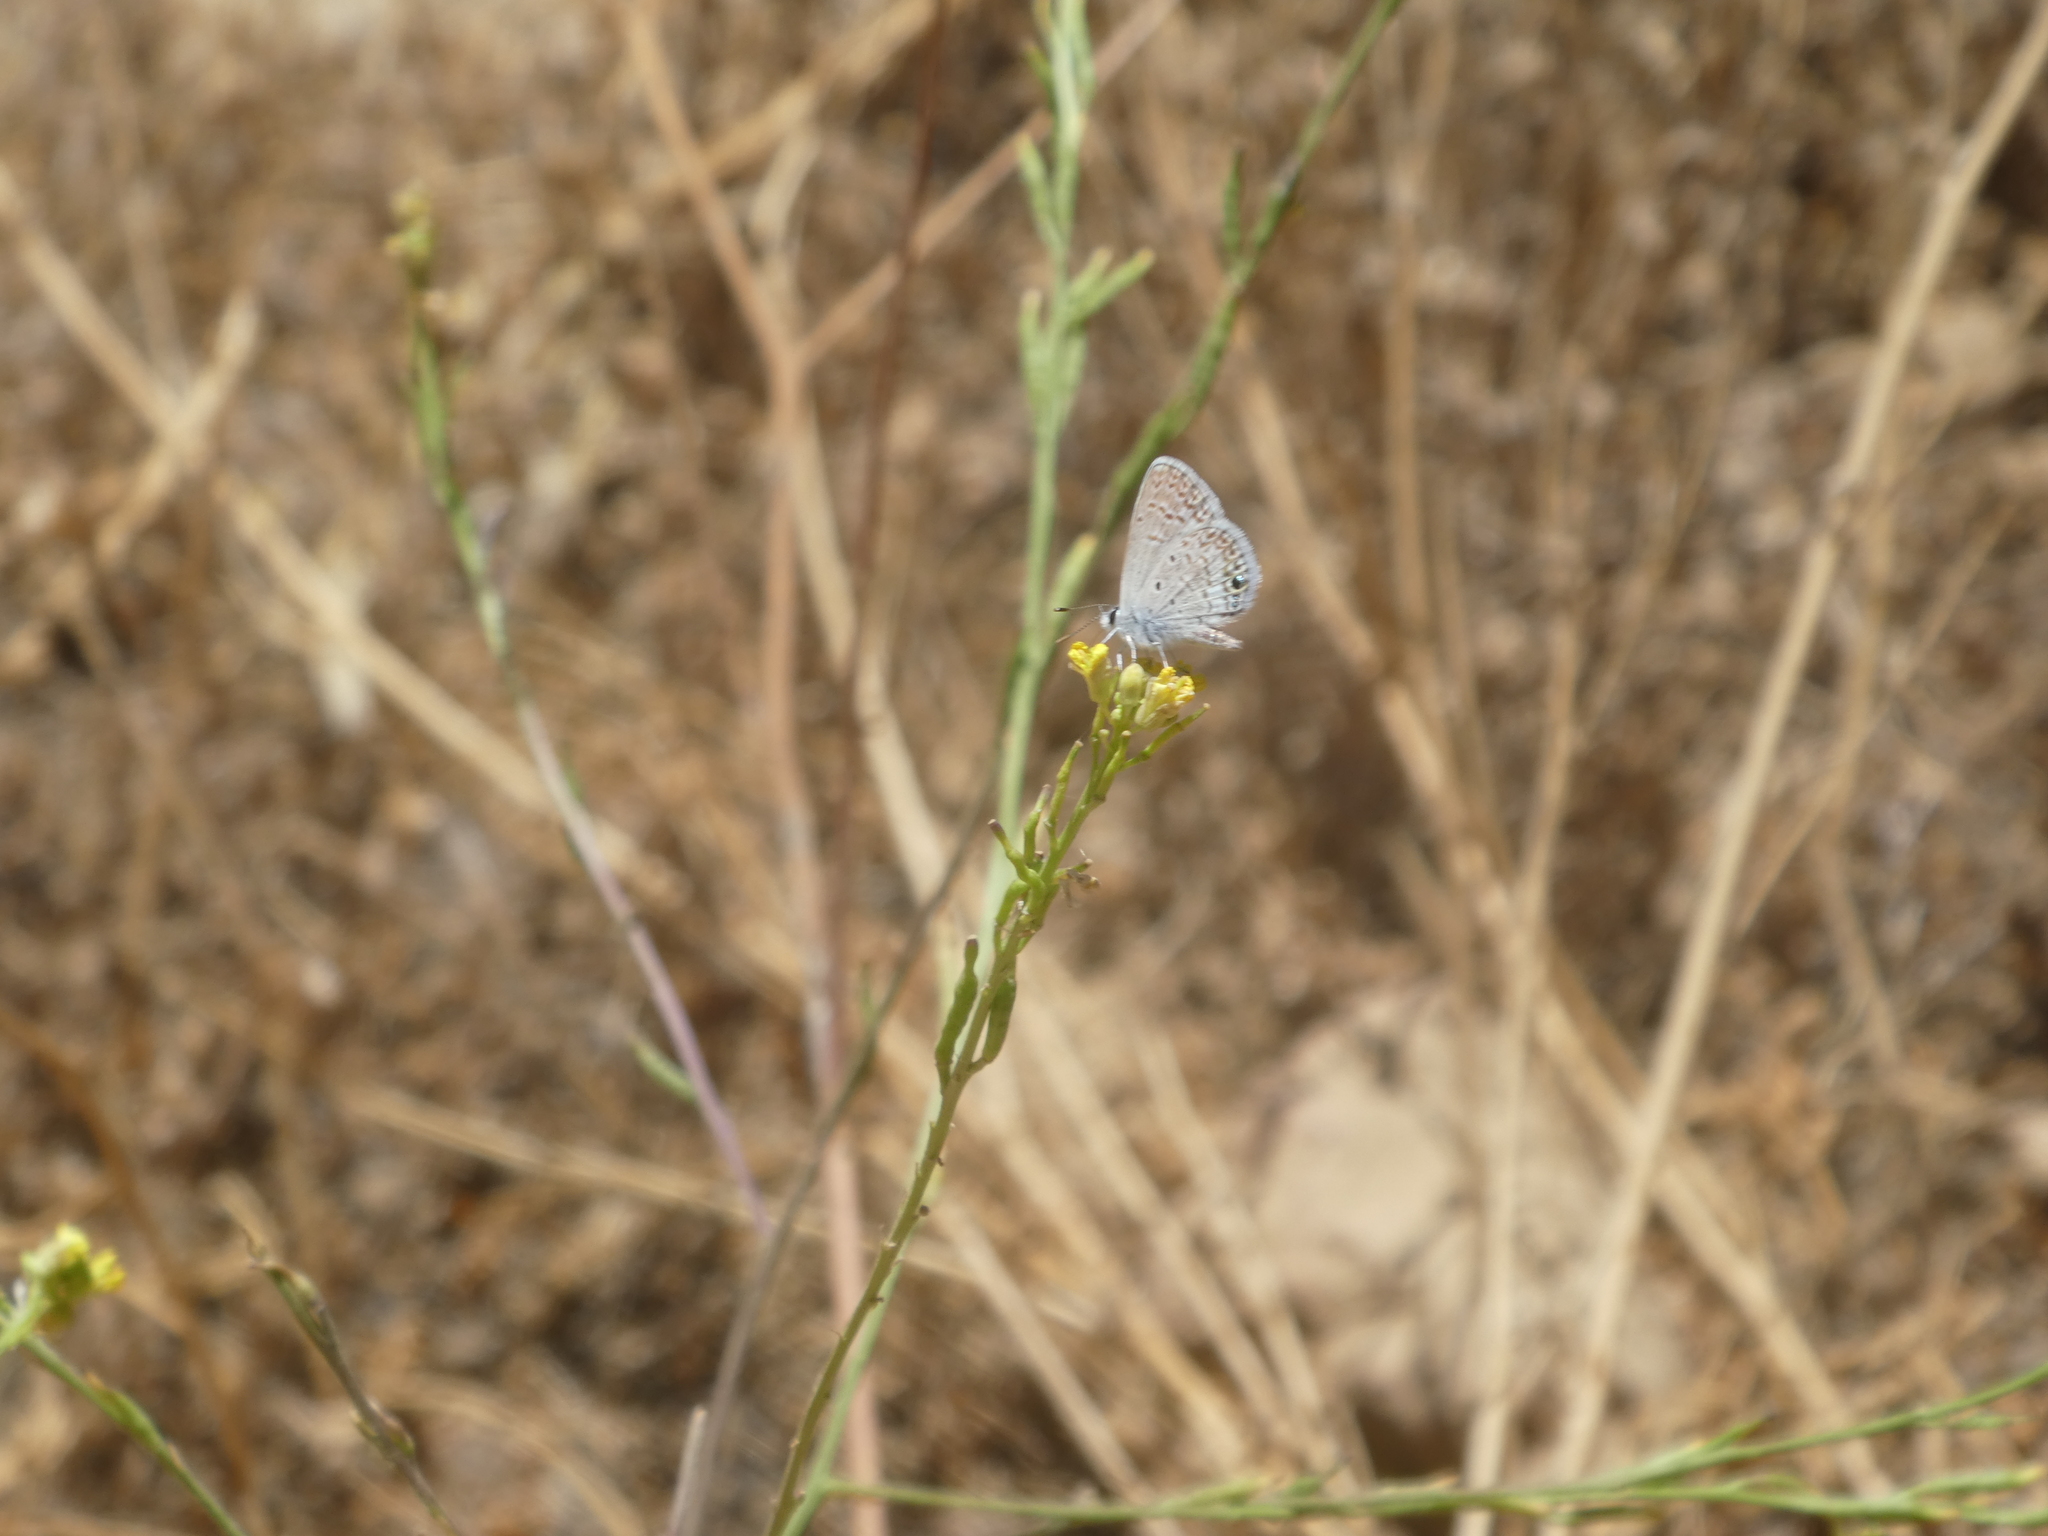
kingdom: Animalia
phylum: Arthropoda
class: Insecta
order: Lepidoptera
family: Lycaenidae
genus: Hemiargus
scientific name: Hemiargus ceraunus
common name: Ceraunus blue
